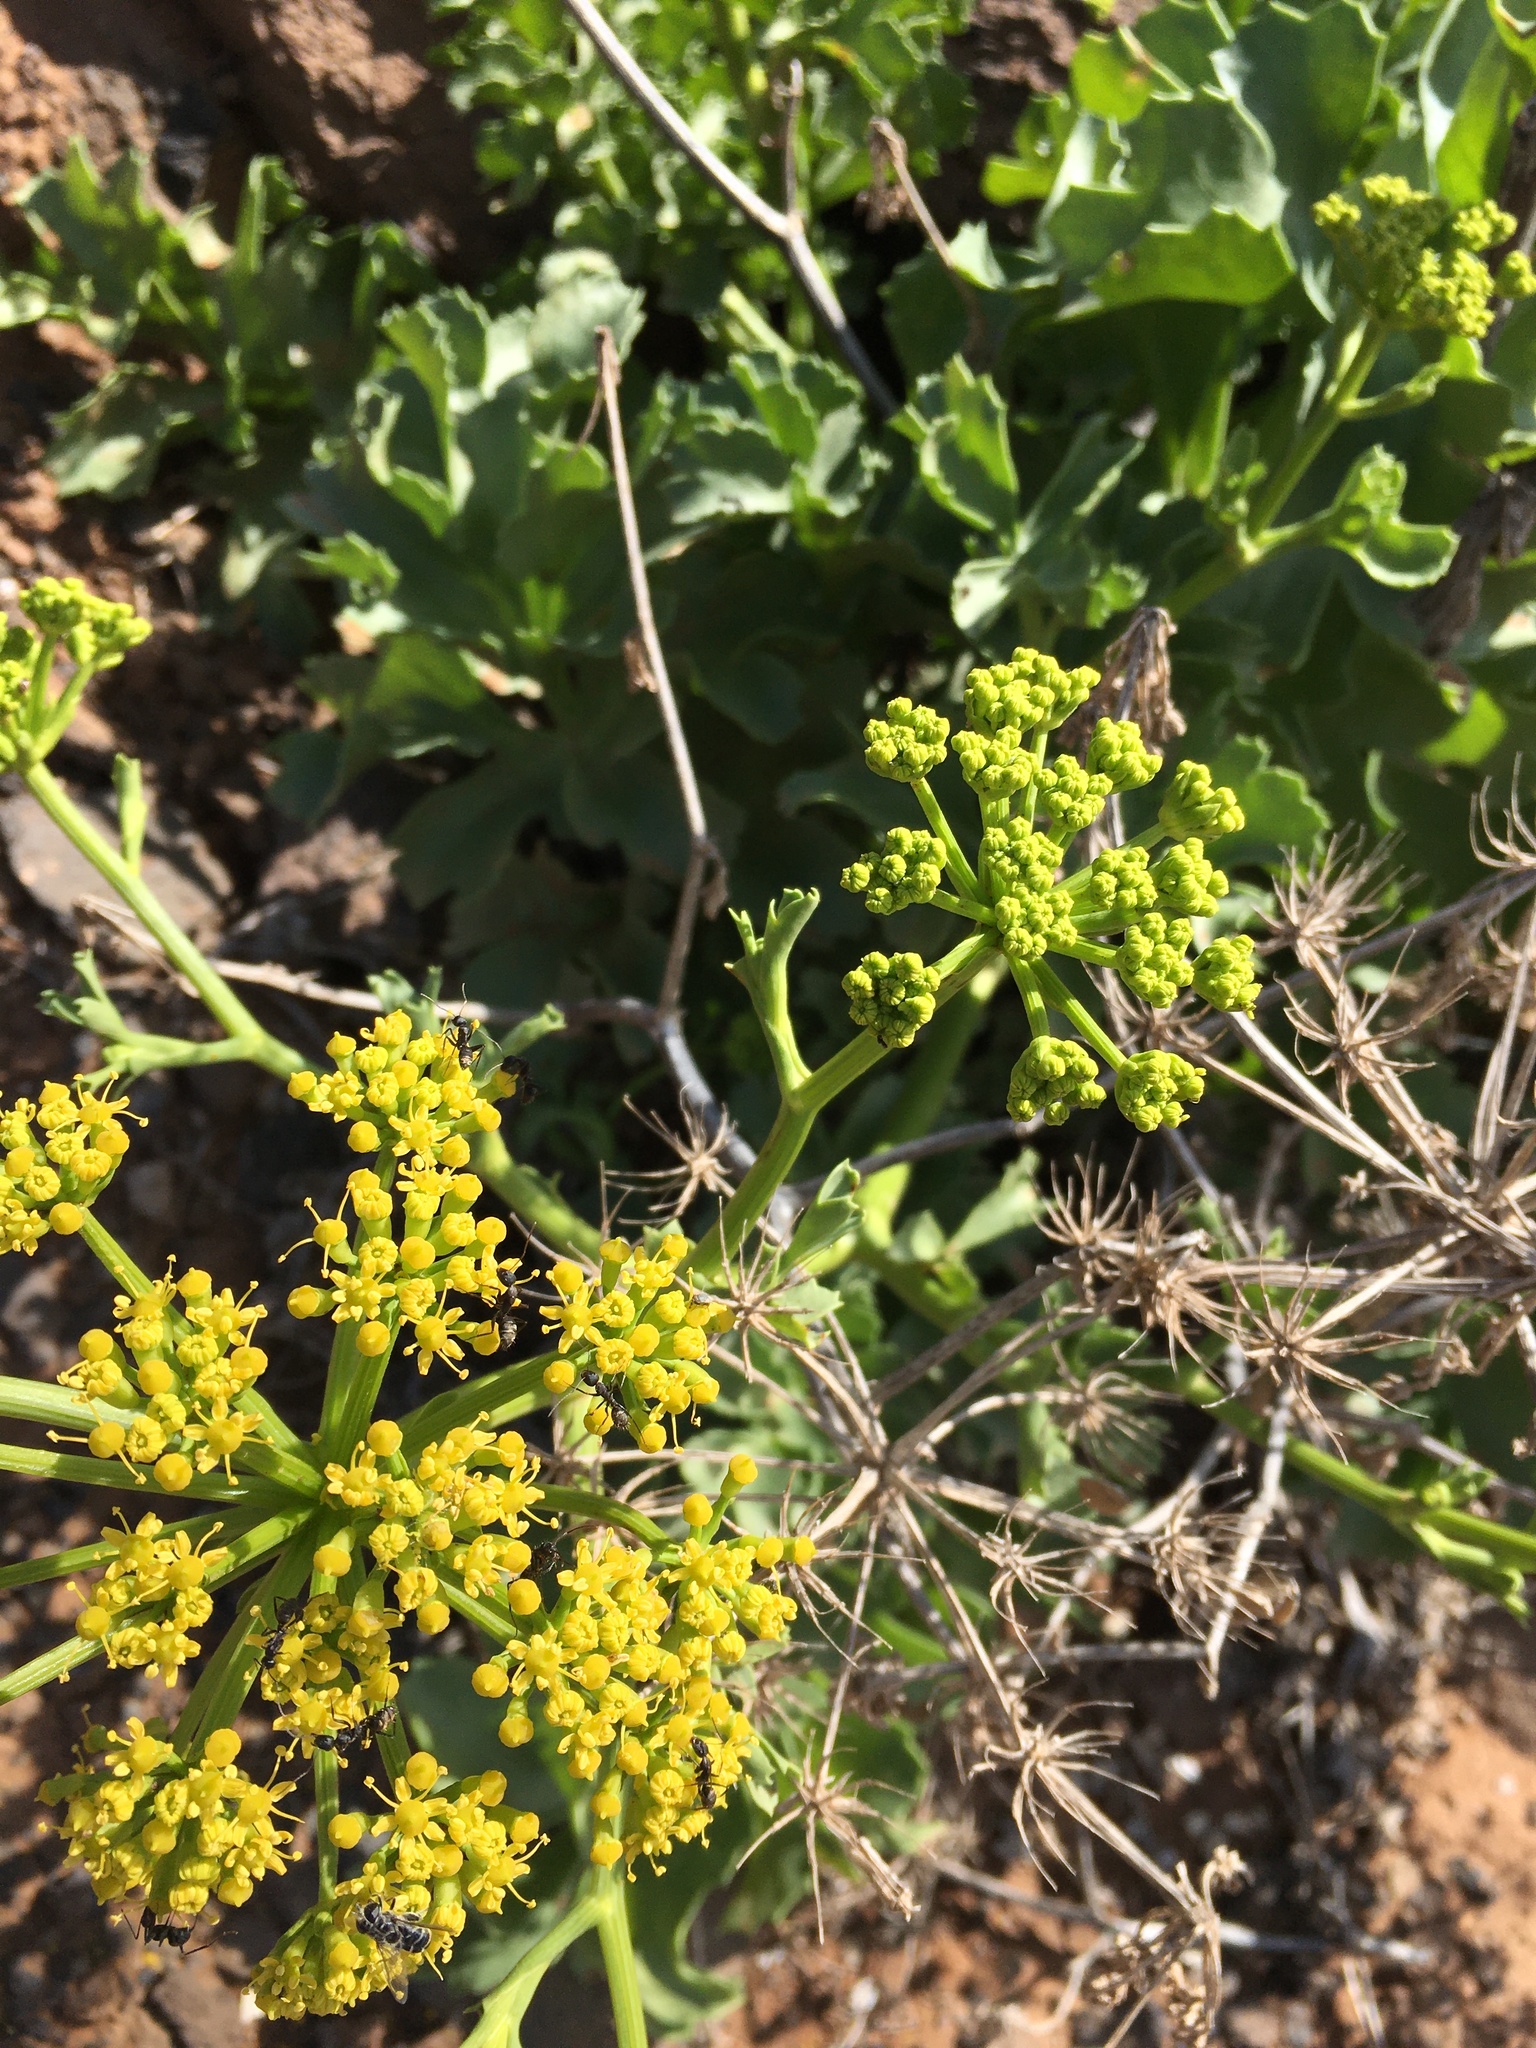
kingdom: Plantae
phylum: Tracheophyta
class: Magnoliopsida
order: Apiales
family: Apiaceae
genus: Astydamia
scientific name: Astydamia latifolia
